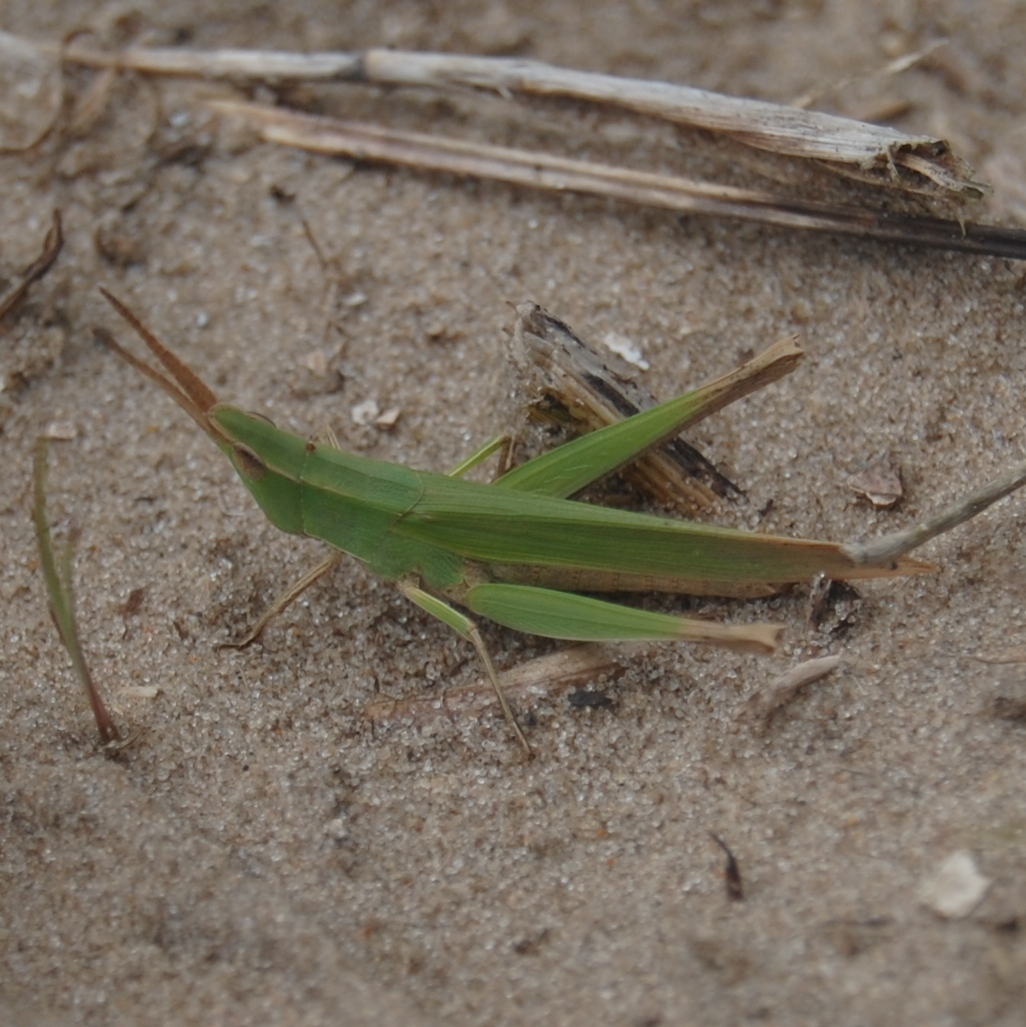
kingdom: Animalia
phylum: Arthropoda
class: Insecta
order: Orthoptera
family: Acrididae
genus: Allotruxalis
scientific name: Allotruxalis gracilis
